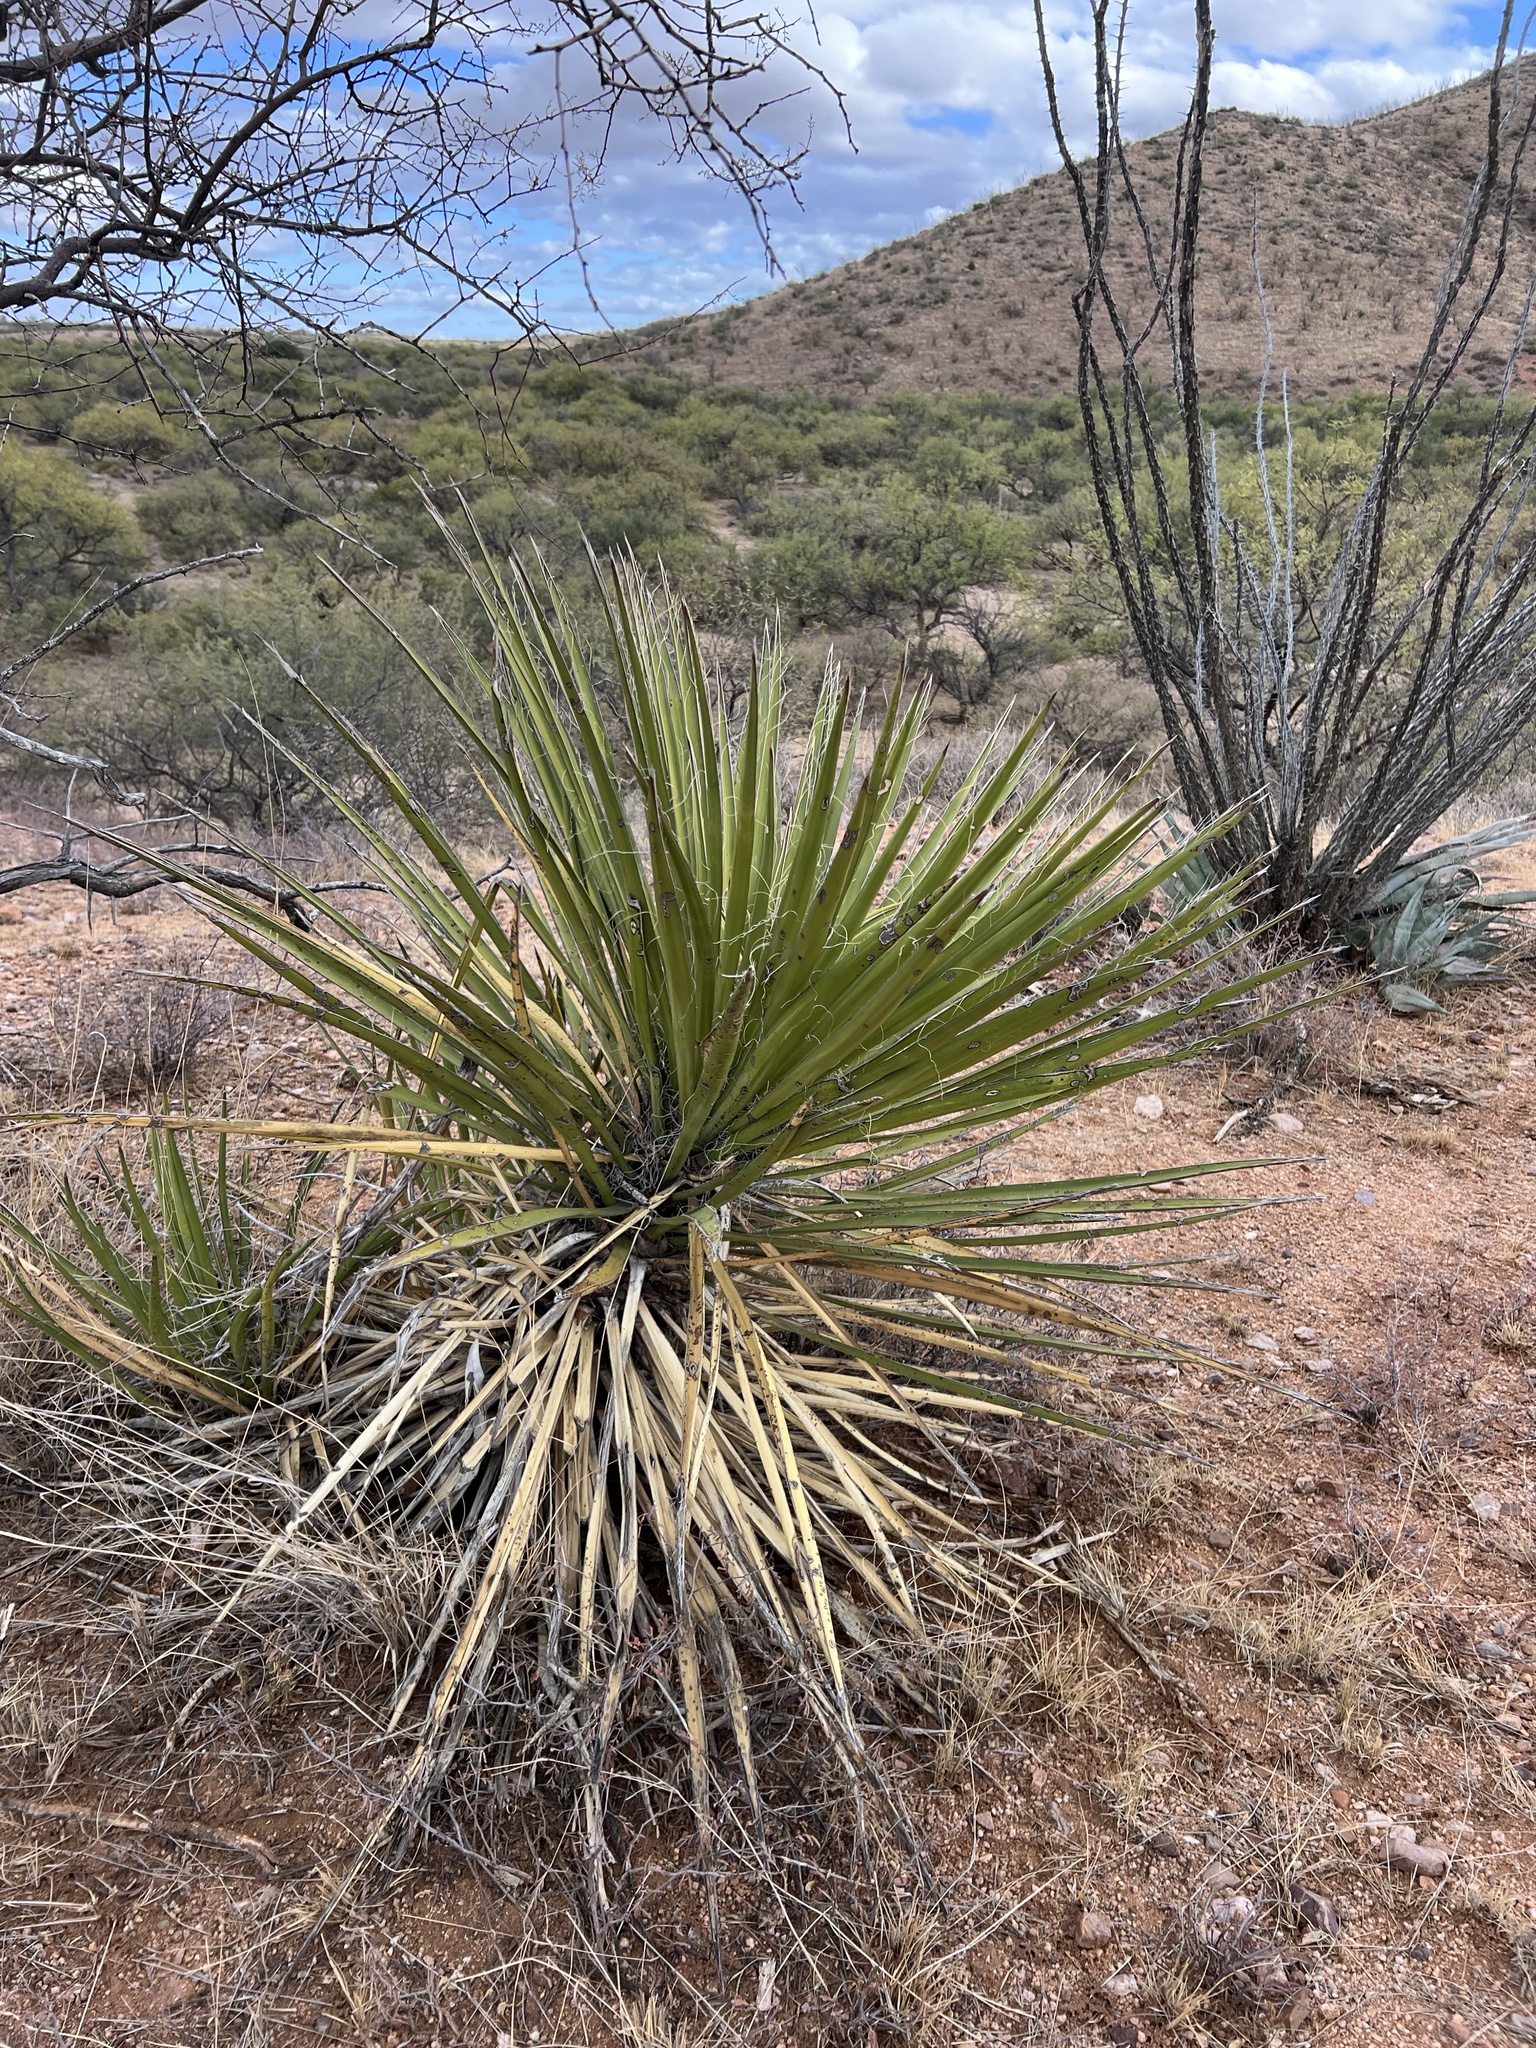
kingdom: Plantae
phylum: Tracheophyta
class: Liliopsida
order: Asparagales
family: Asparagaceae
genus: Yucca
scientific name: Yucca baccata
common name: Banana yucca
